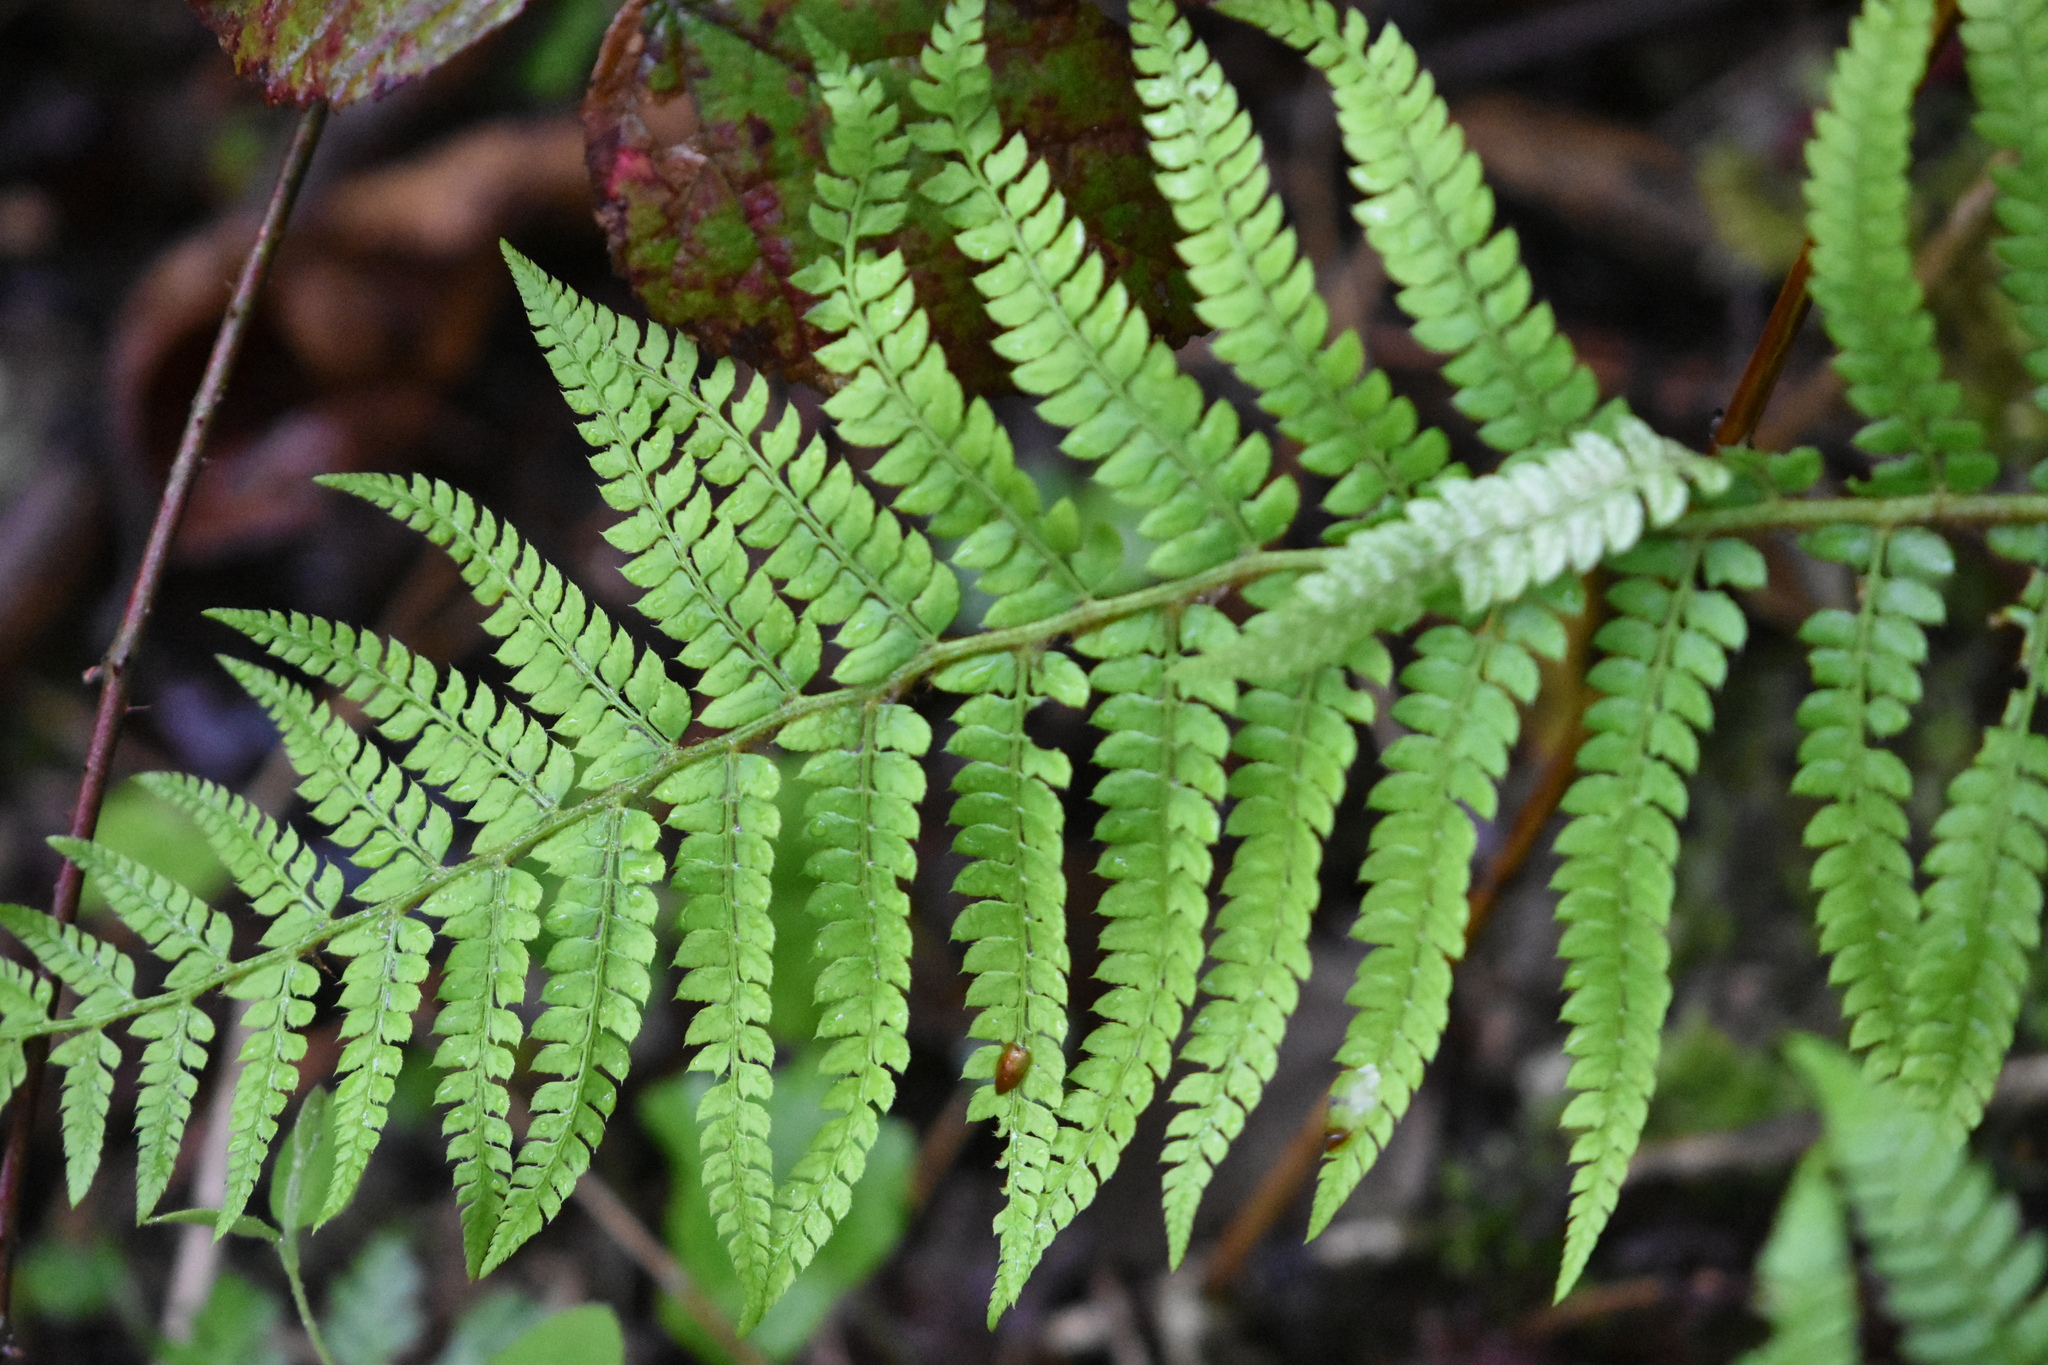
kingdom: Plantae
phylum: Tracheophyta
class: Polypodiopsida
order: Polypodiales
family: Dryopteridaceae
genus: Polystichum
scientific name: Polystichum setiferum
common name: Soft shield-fern
